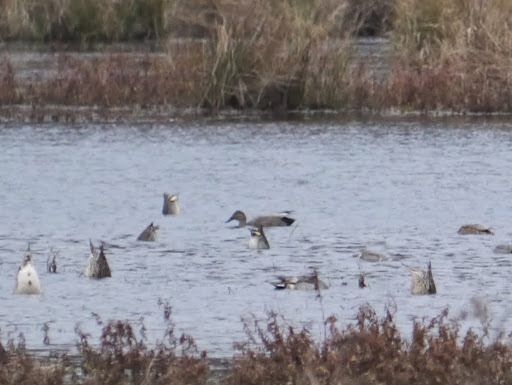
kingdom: Animalia
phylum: Chordata
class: Aves
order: Anseriformes
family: Anatidae
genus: Mareca
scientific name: Mareca strepera
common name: Gadwall
